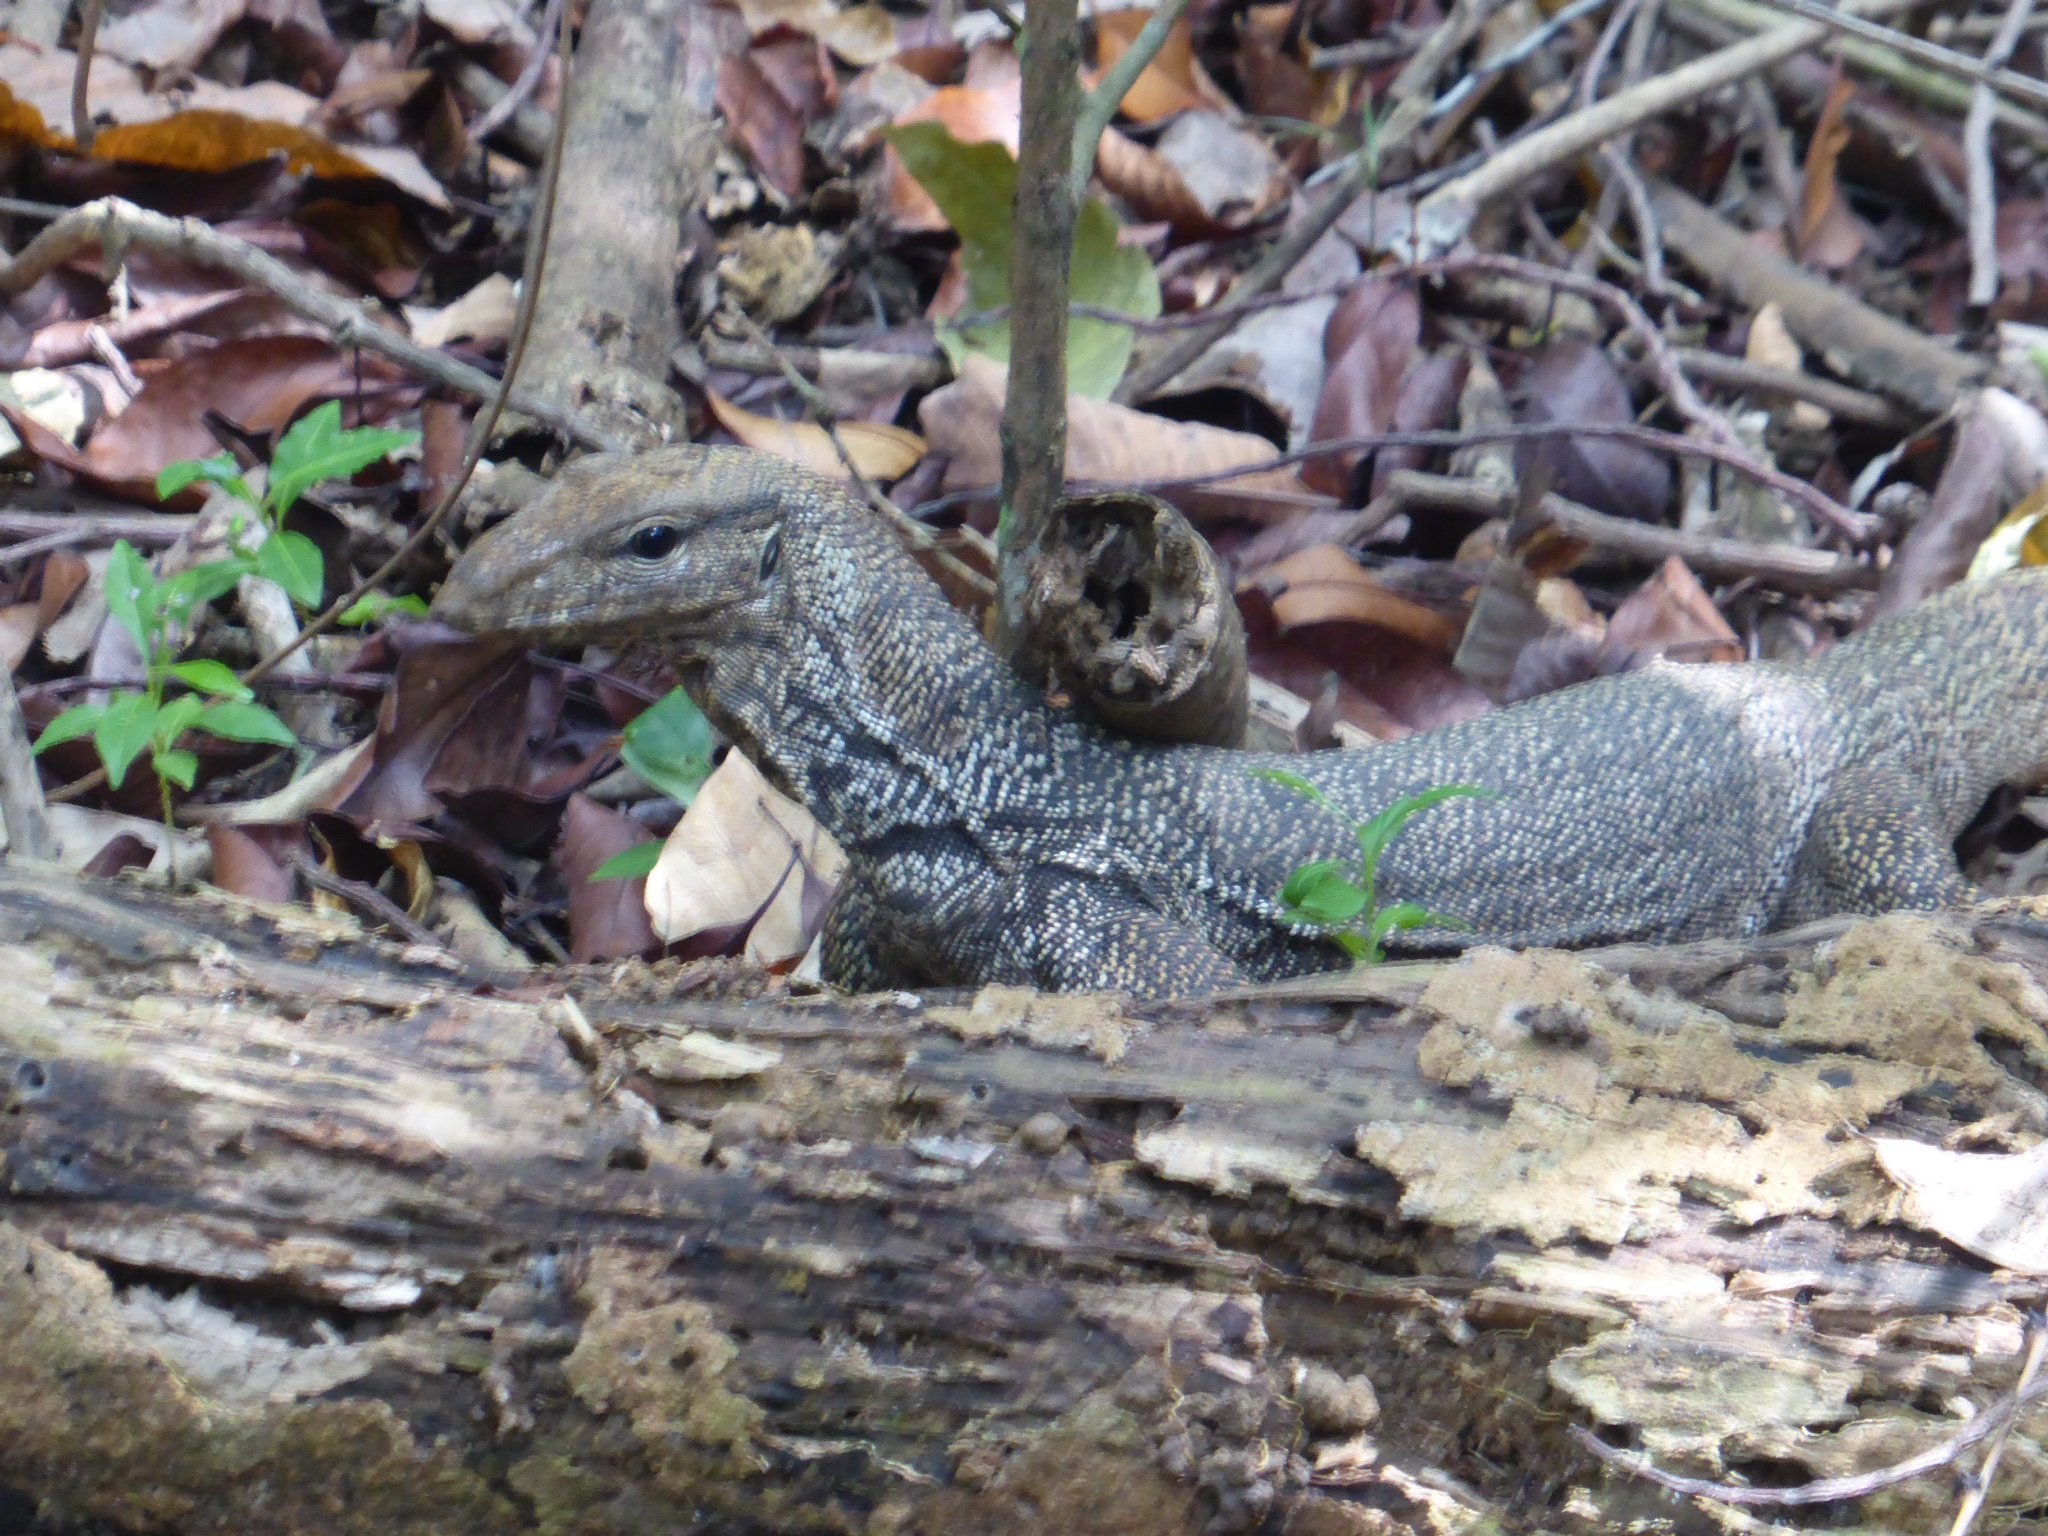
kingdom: Animalia
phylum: Chordata
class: Squamata
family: Varanidae
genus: Varanus
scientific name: Varanus nebulosus
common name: Clouded monitor
